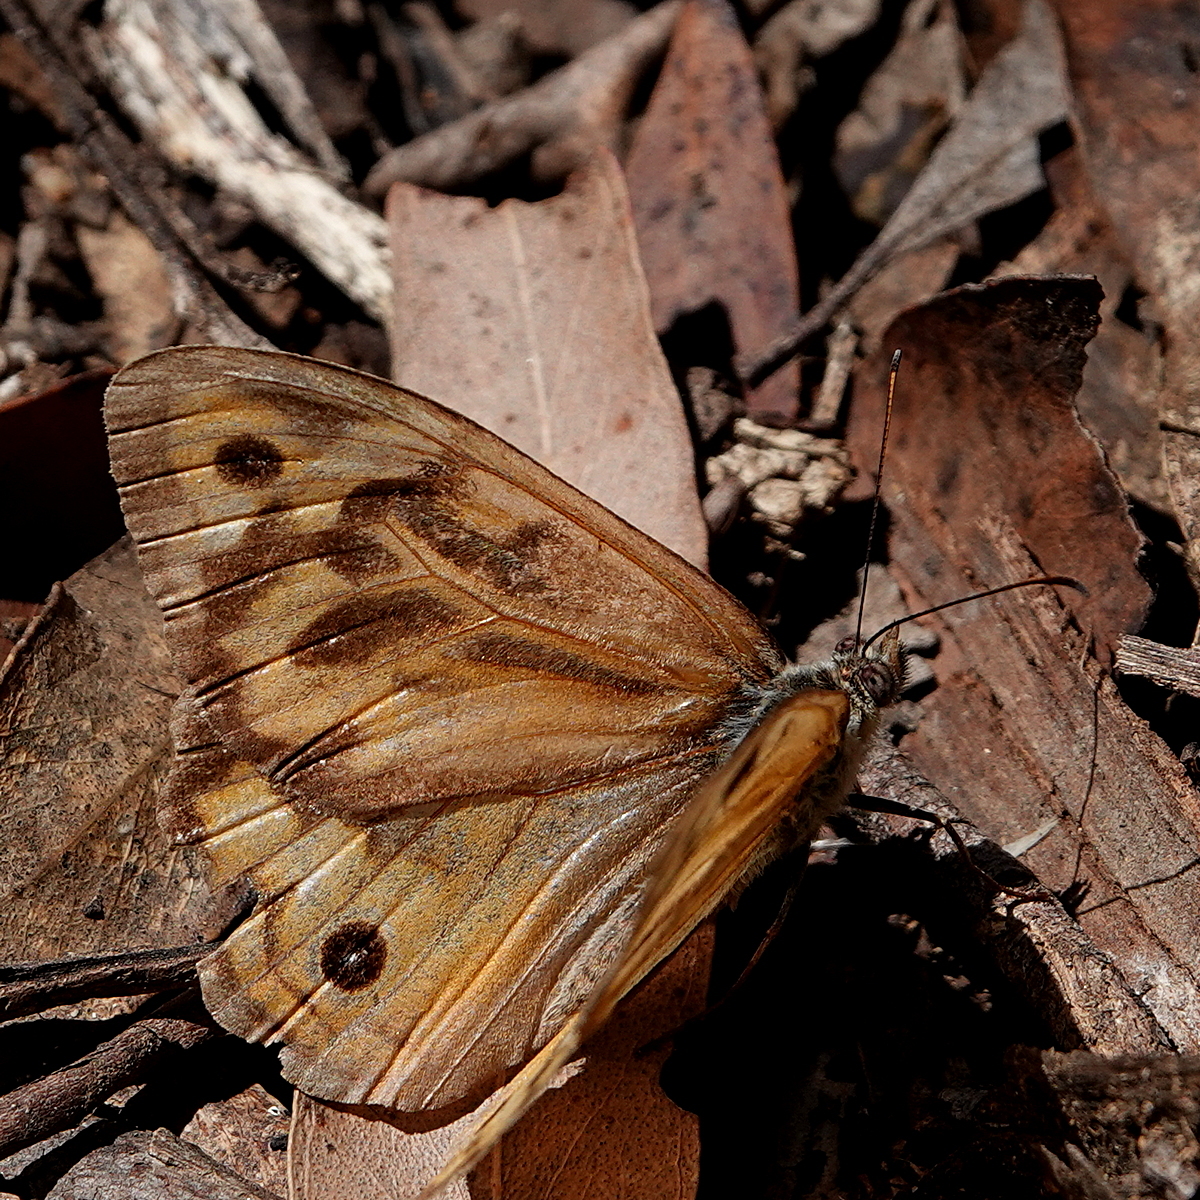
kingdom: Animalia
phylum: Arthropoda
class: Insecta
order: Lepidoptera
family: Nymphalidae
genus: Heteronympha
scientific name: Heteronympha merope
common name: Common brown
